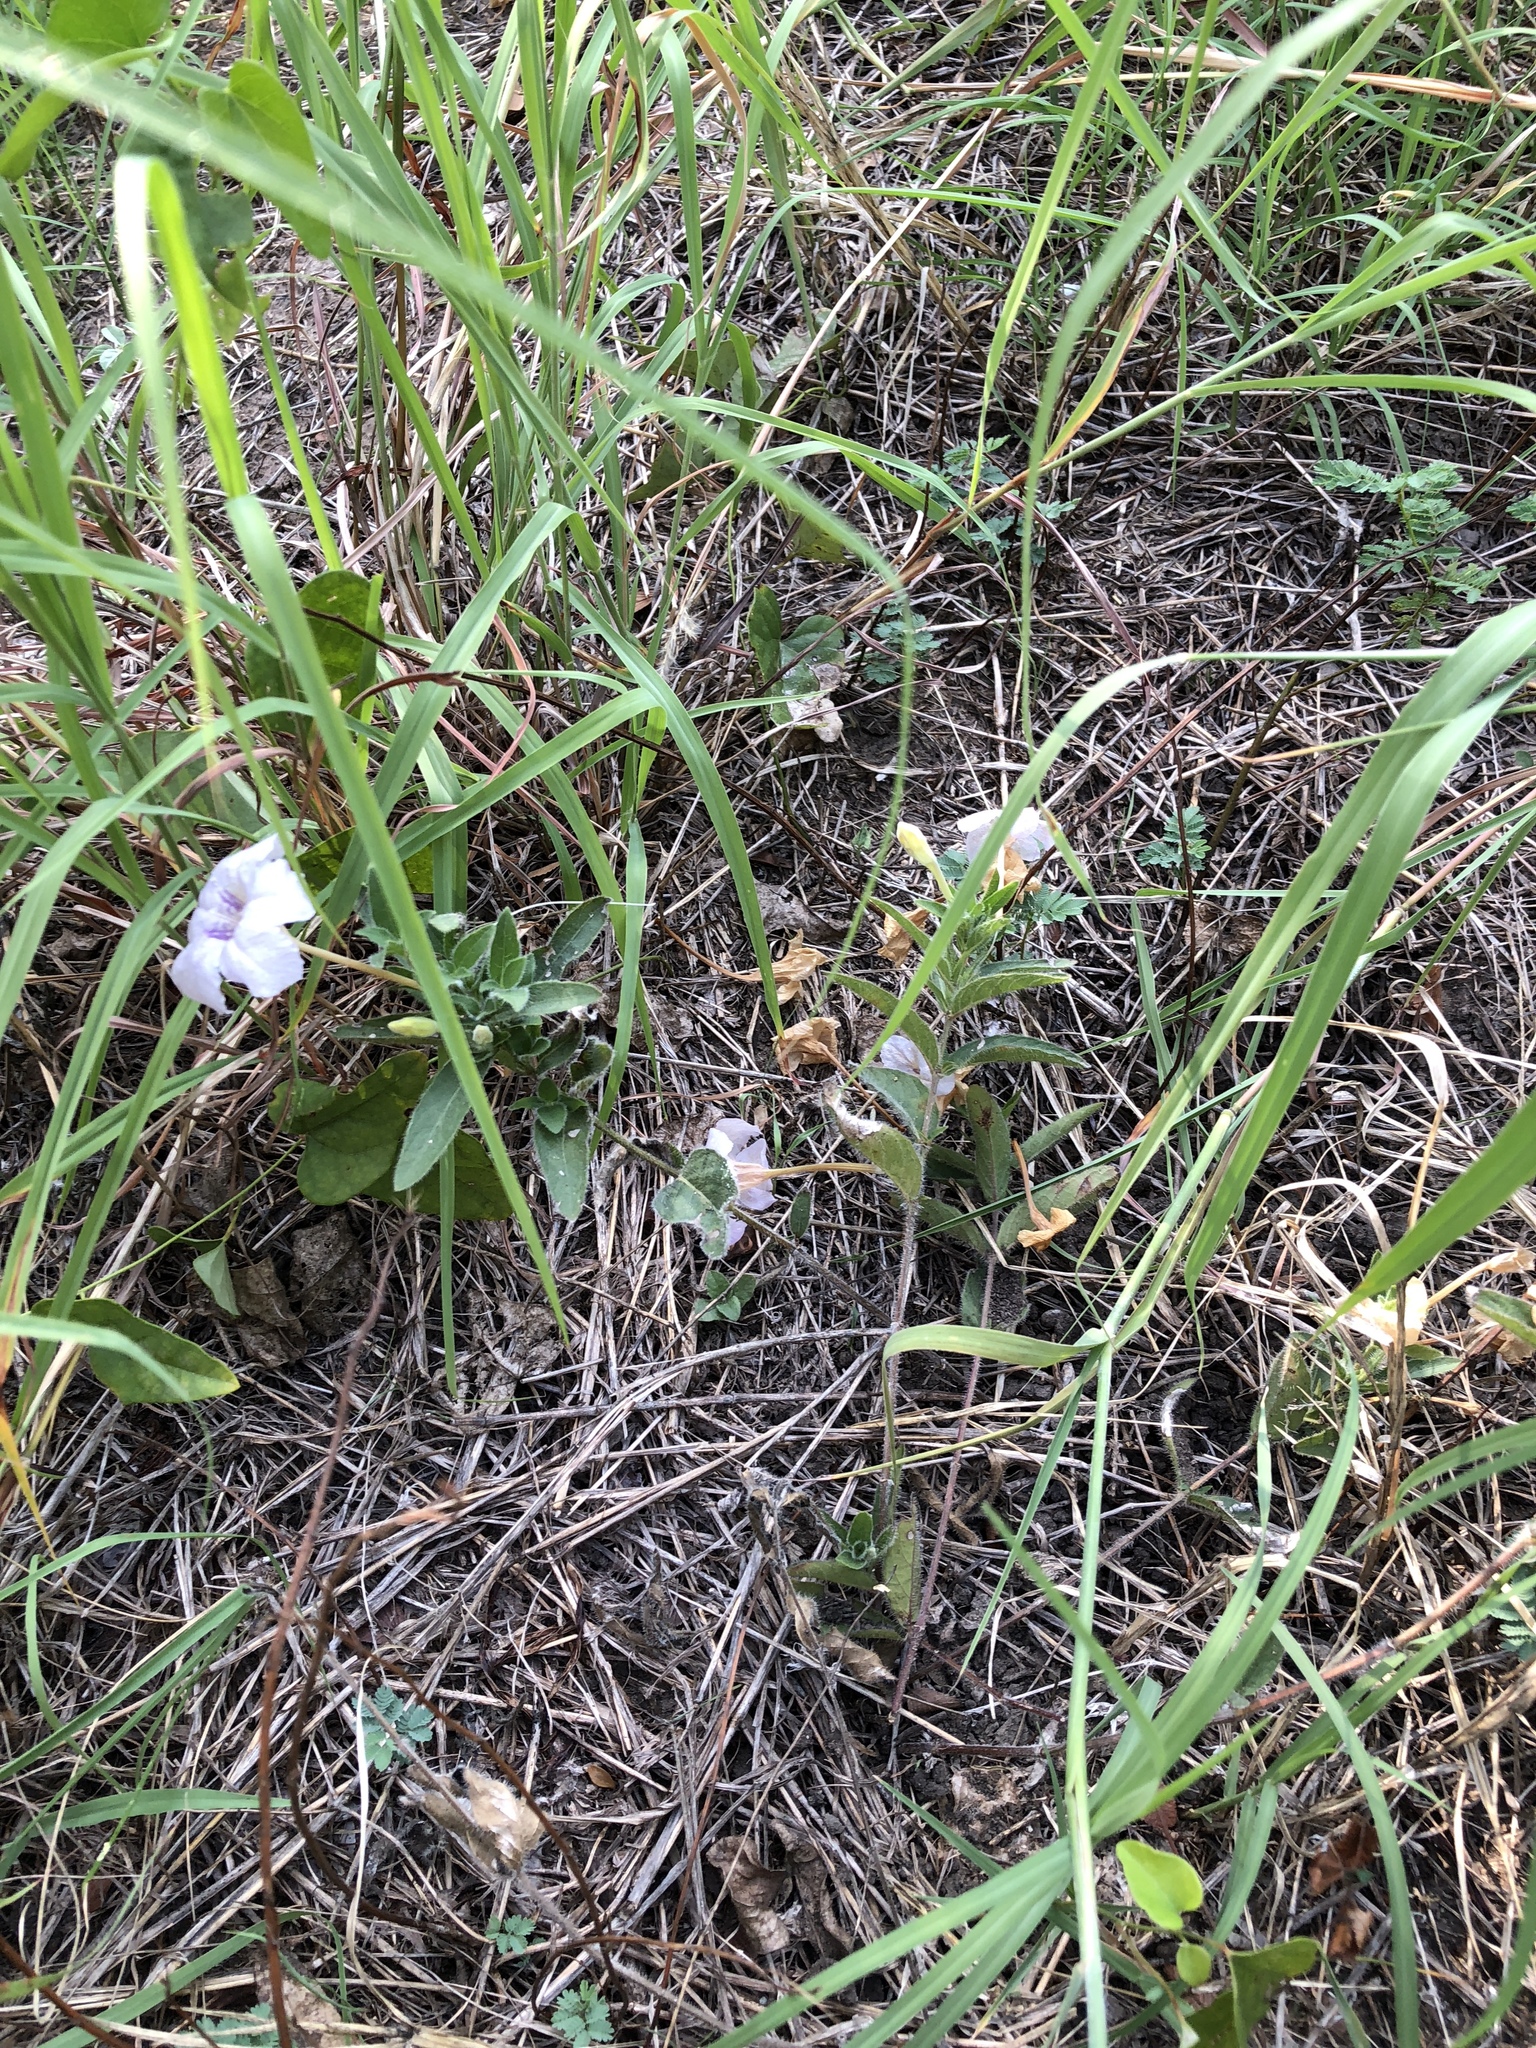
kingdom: Plantae
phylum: Tracheophyta
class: Magnoliopsida
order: Lamiales
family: Acanthaceae
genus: Ruellia
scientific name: Ruellia humilis
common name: Fringe-leaf ruellia
